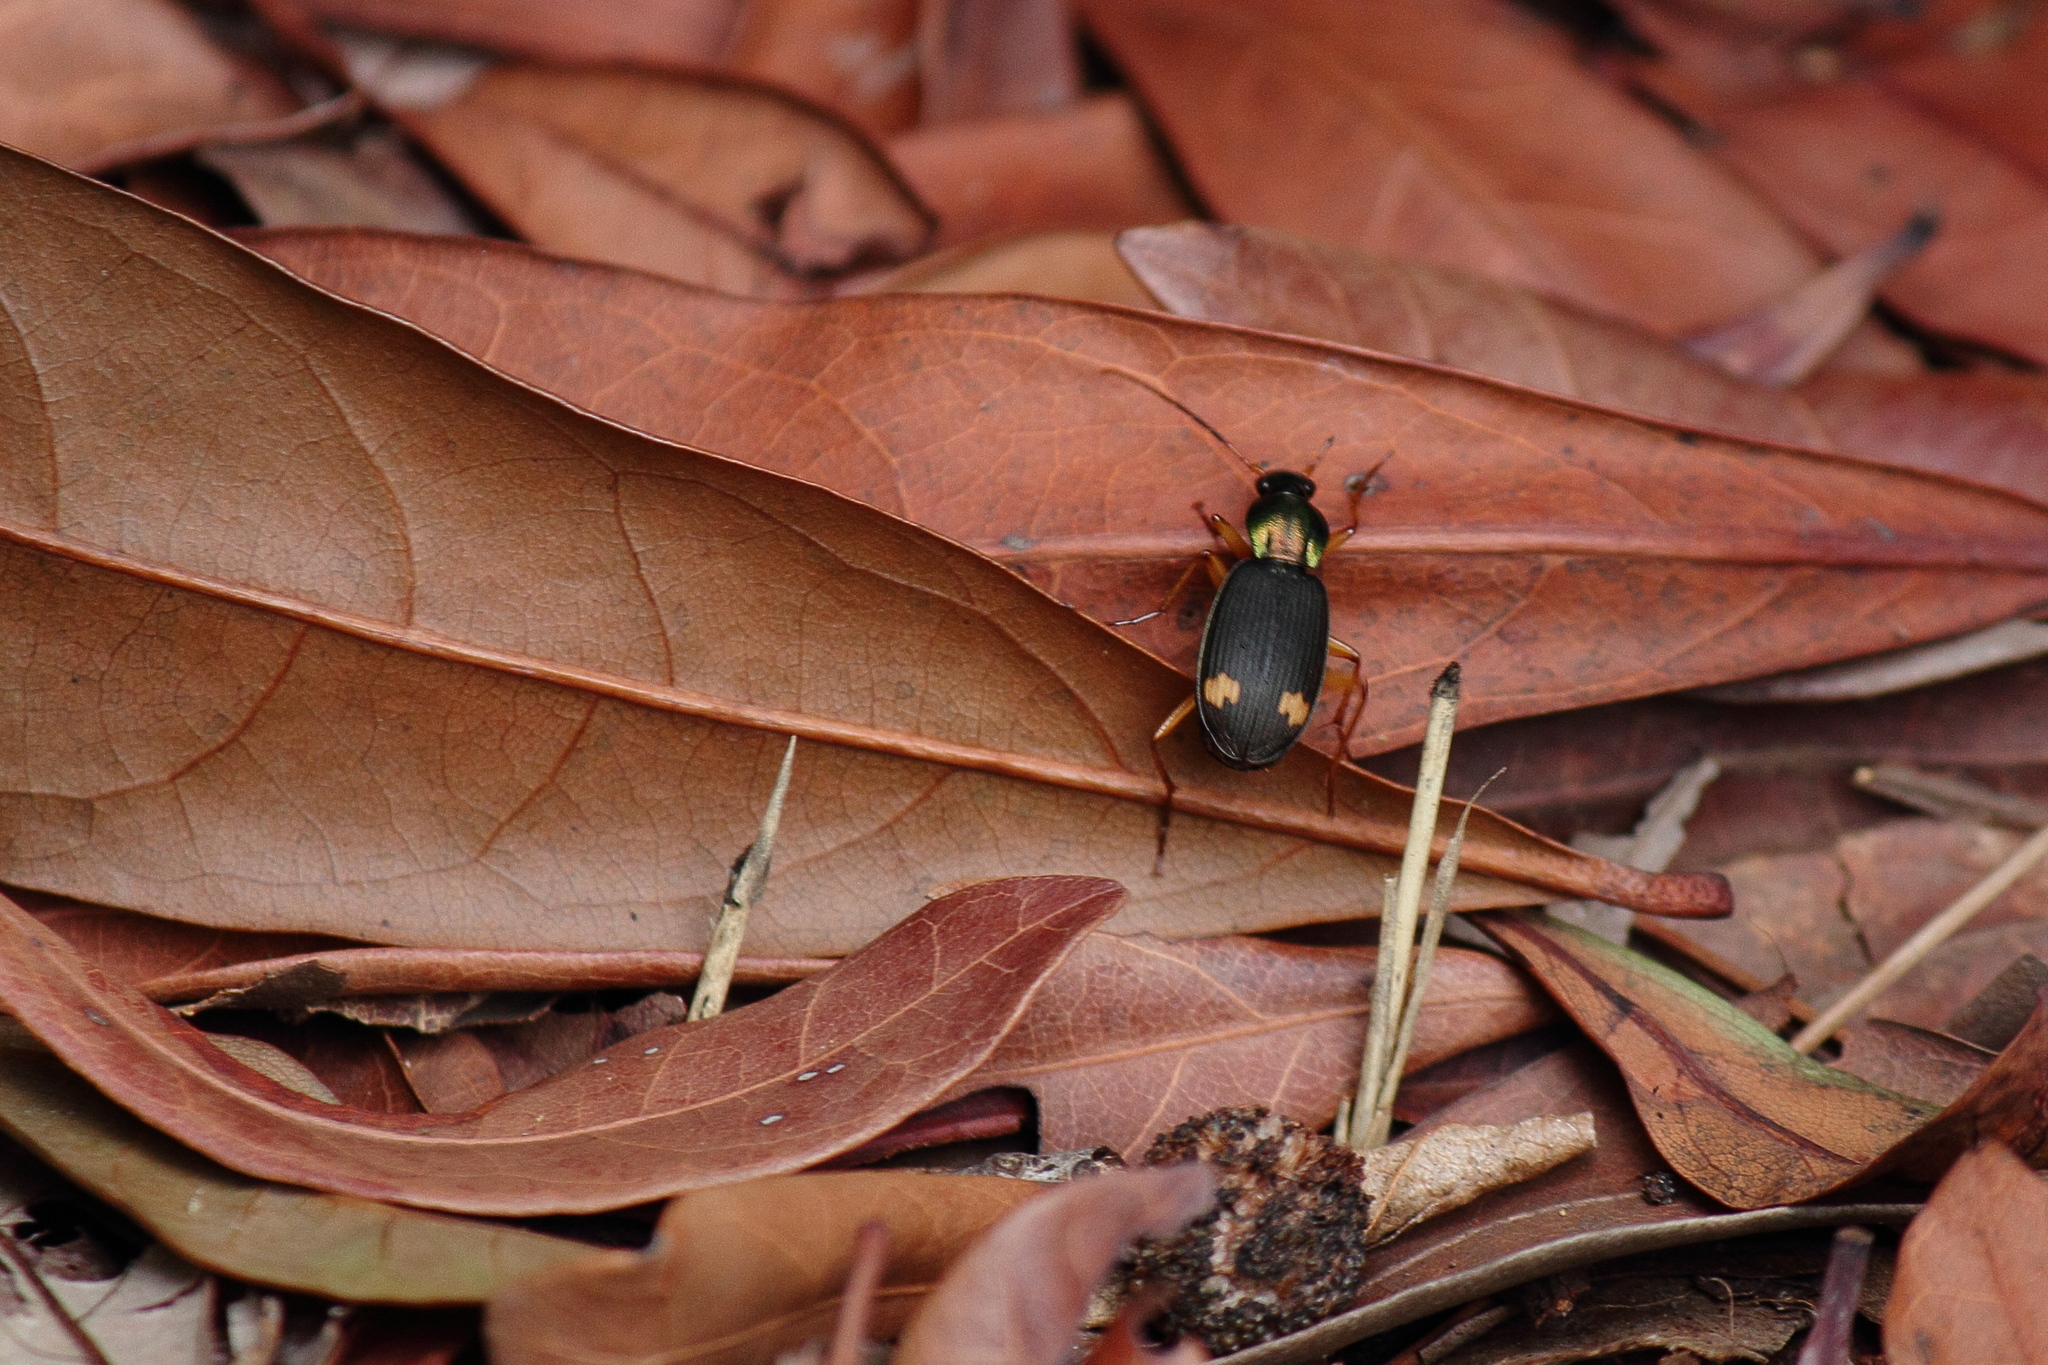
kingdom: Animalia
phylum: Arthropoda
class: Insecta
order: Coleoptera
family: Carabidae
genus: Chlaenius
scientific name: Chlaenius naeviger
